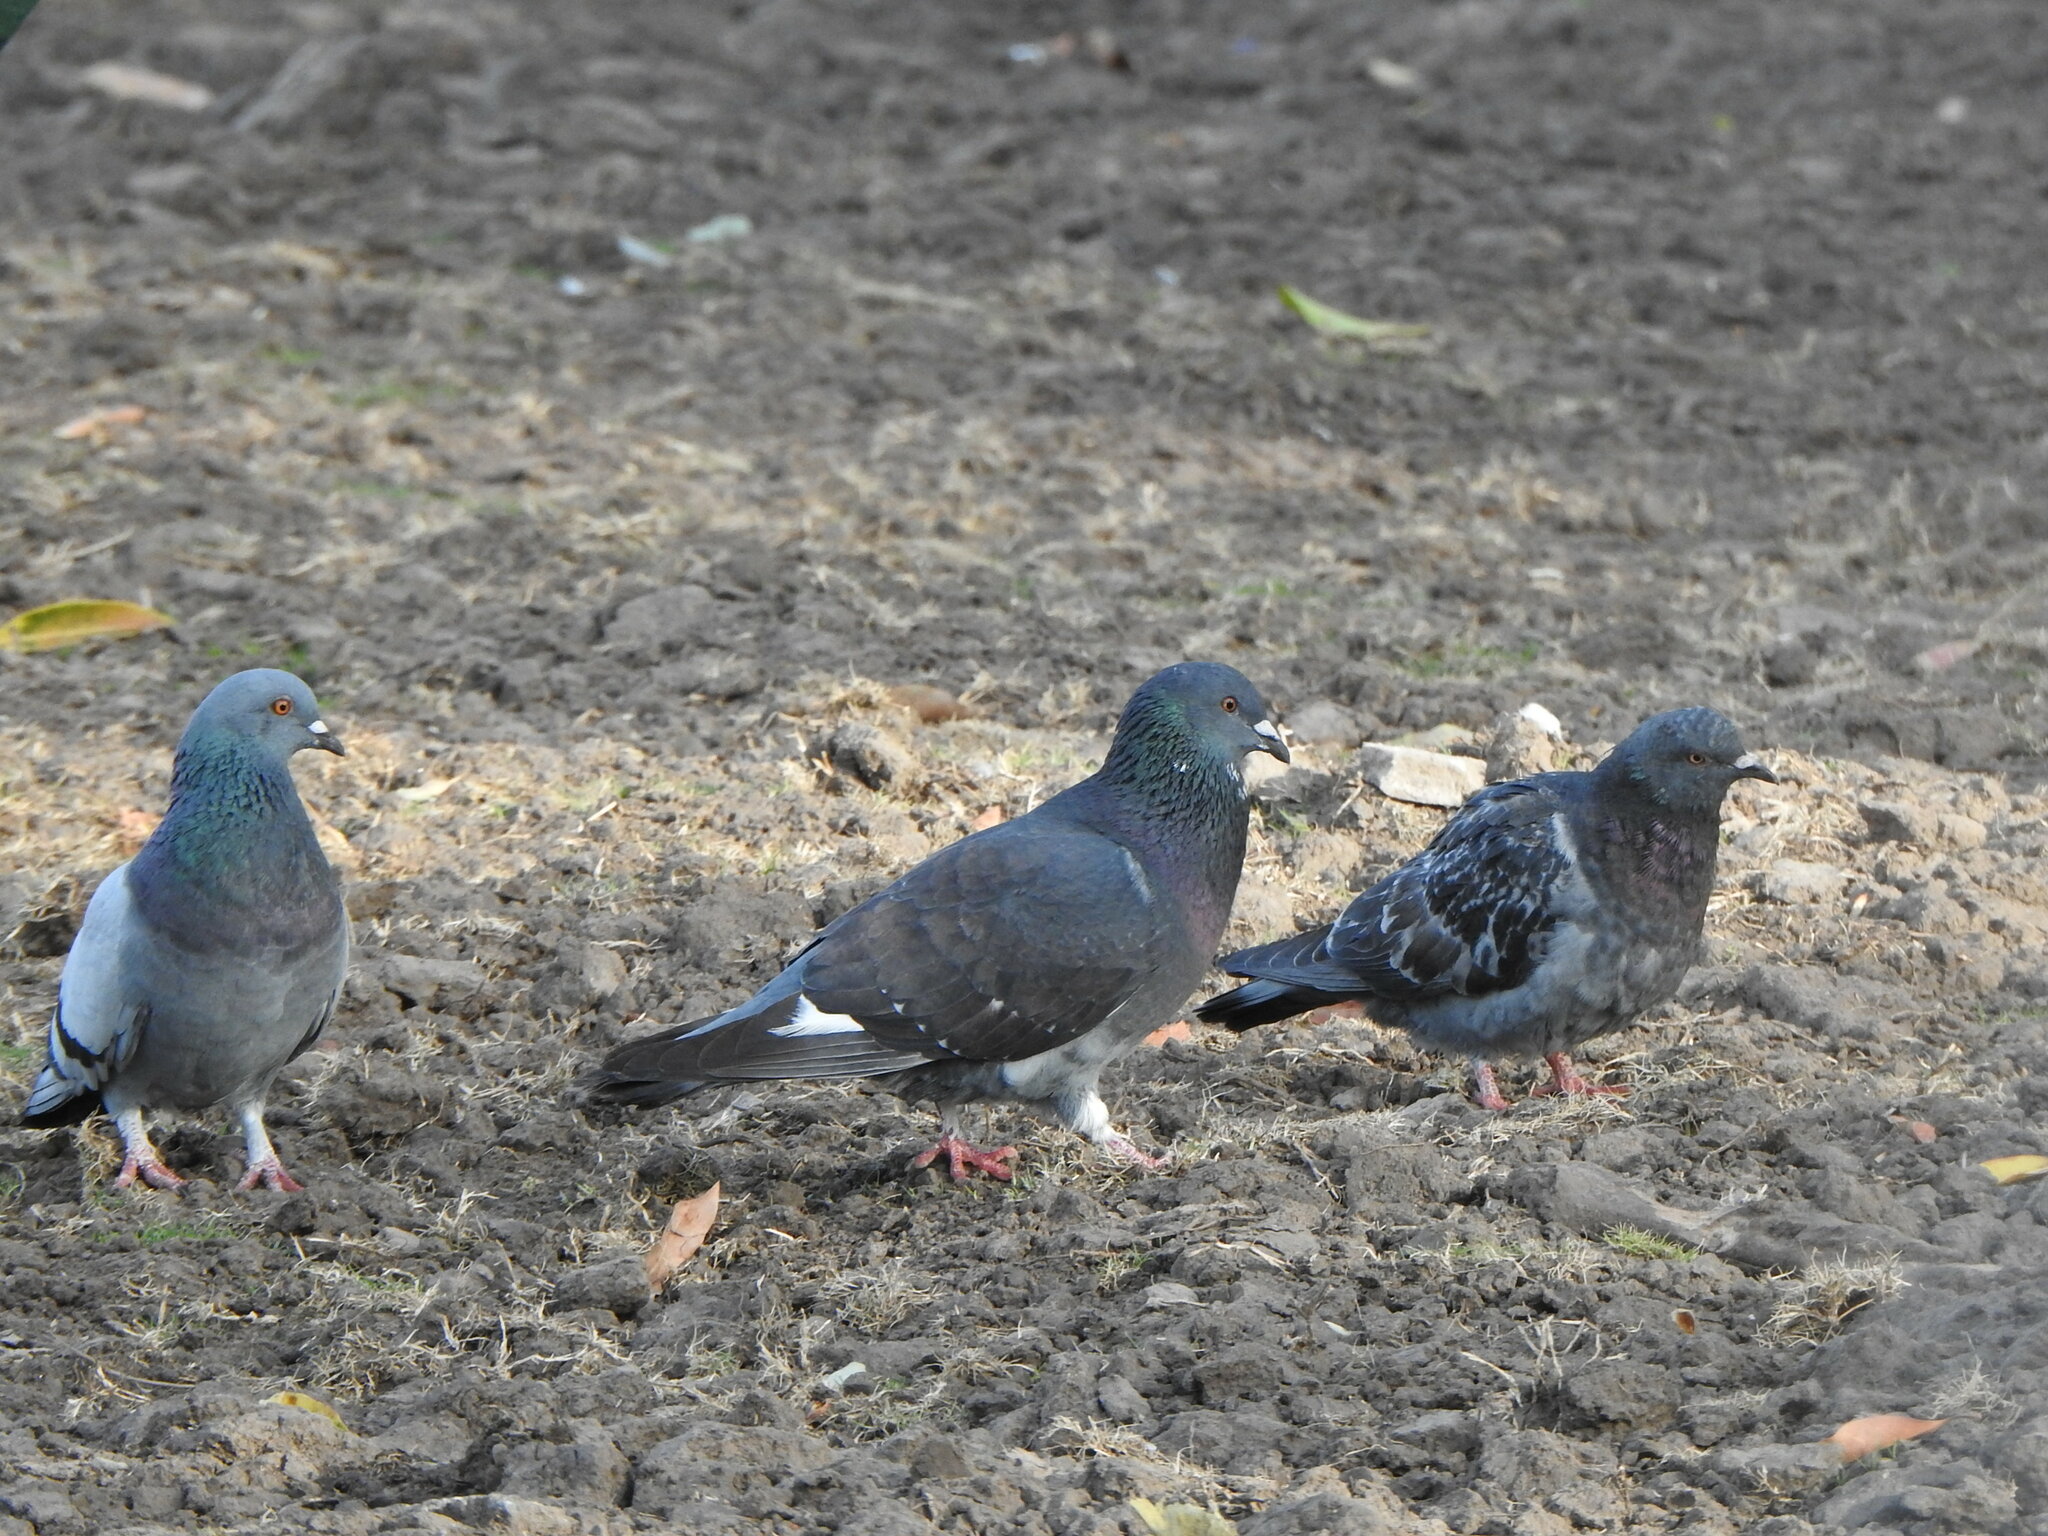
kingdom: Animalia
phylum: Chordata
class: Aves
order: Columbiformes
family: Columbidae
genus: Columba
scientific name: Columba livia
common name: Rock pigeon
